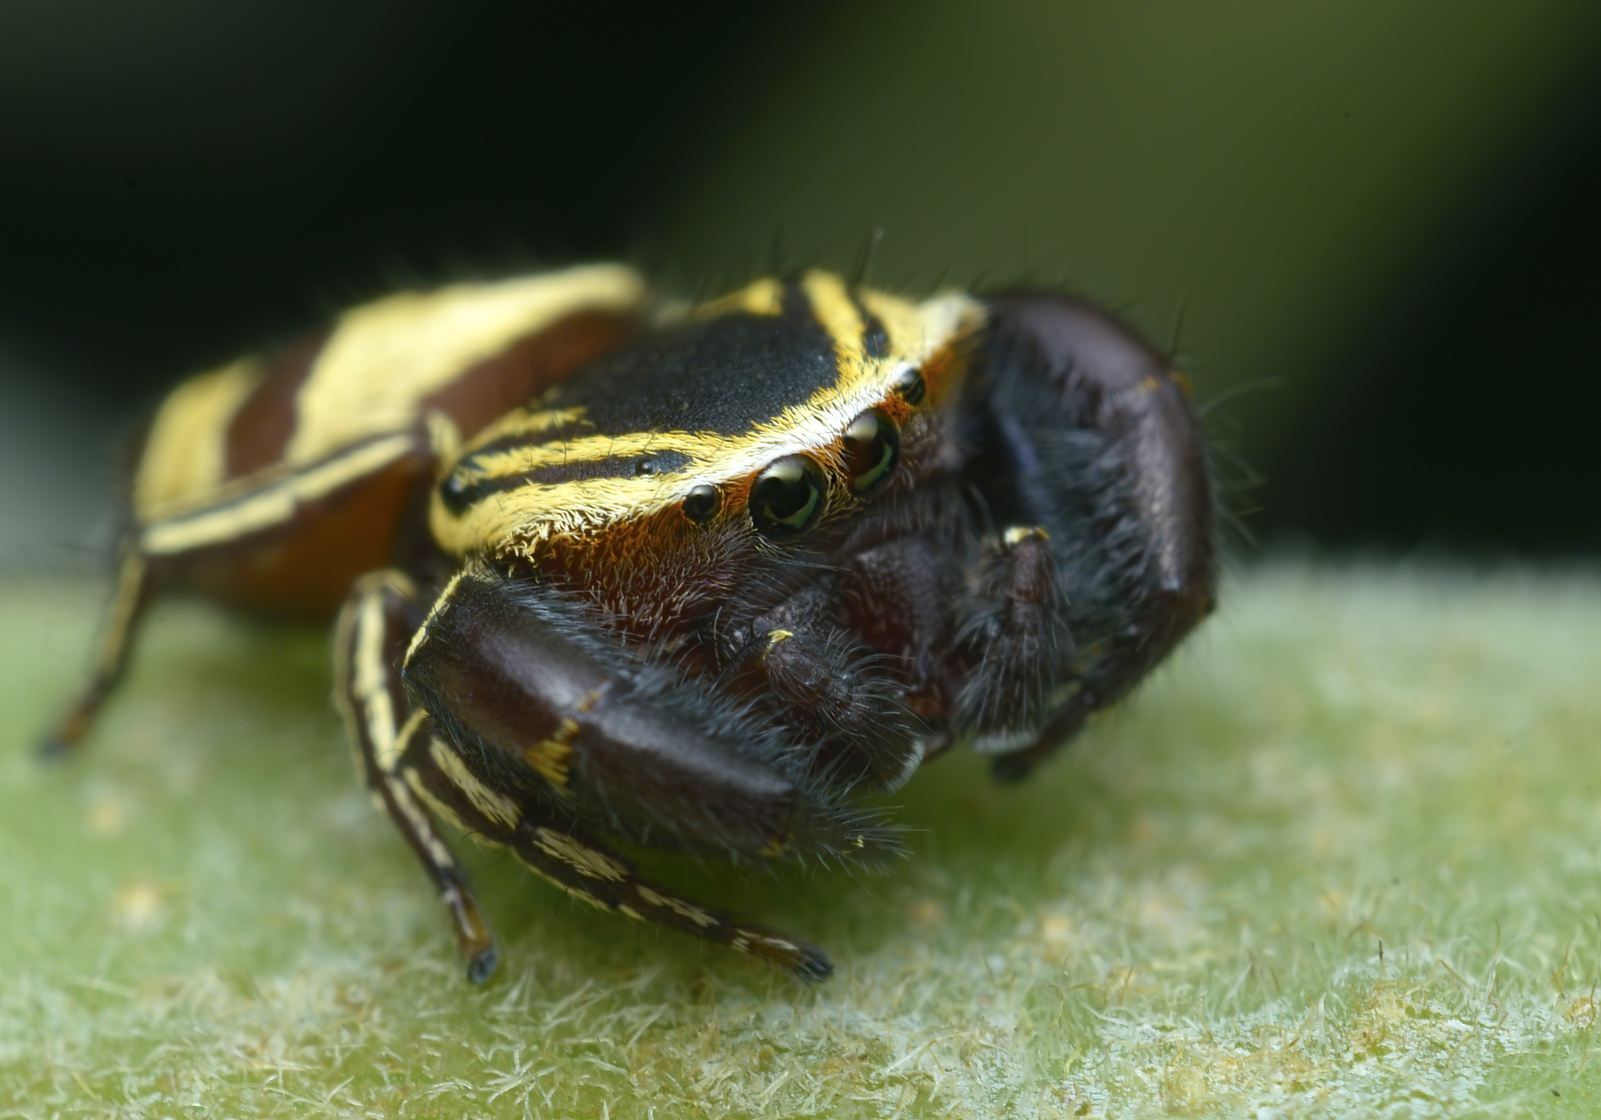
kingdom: Animalia
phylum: Arthropoda
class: Arachnida
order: Araneae
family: Salticidae
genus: Rhene
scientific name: Rhene flavicomans
